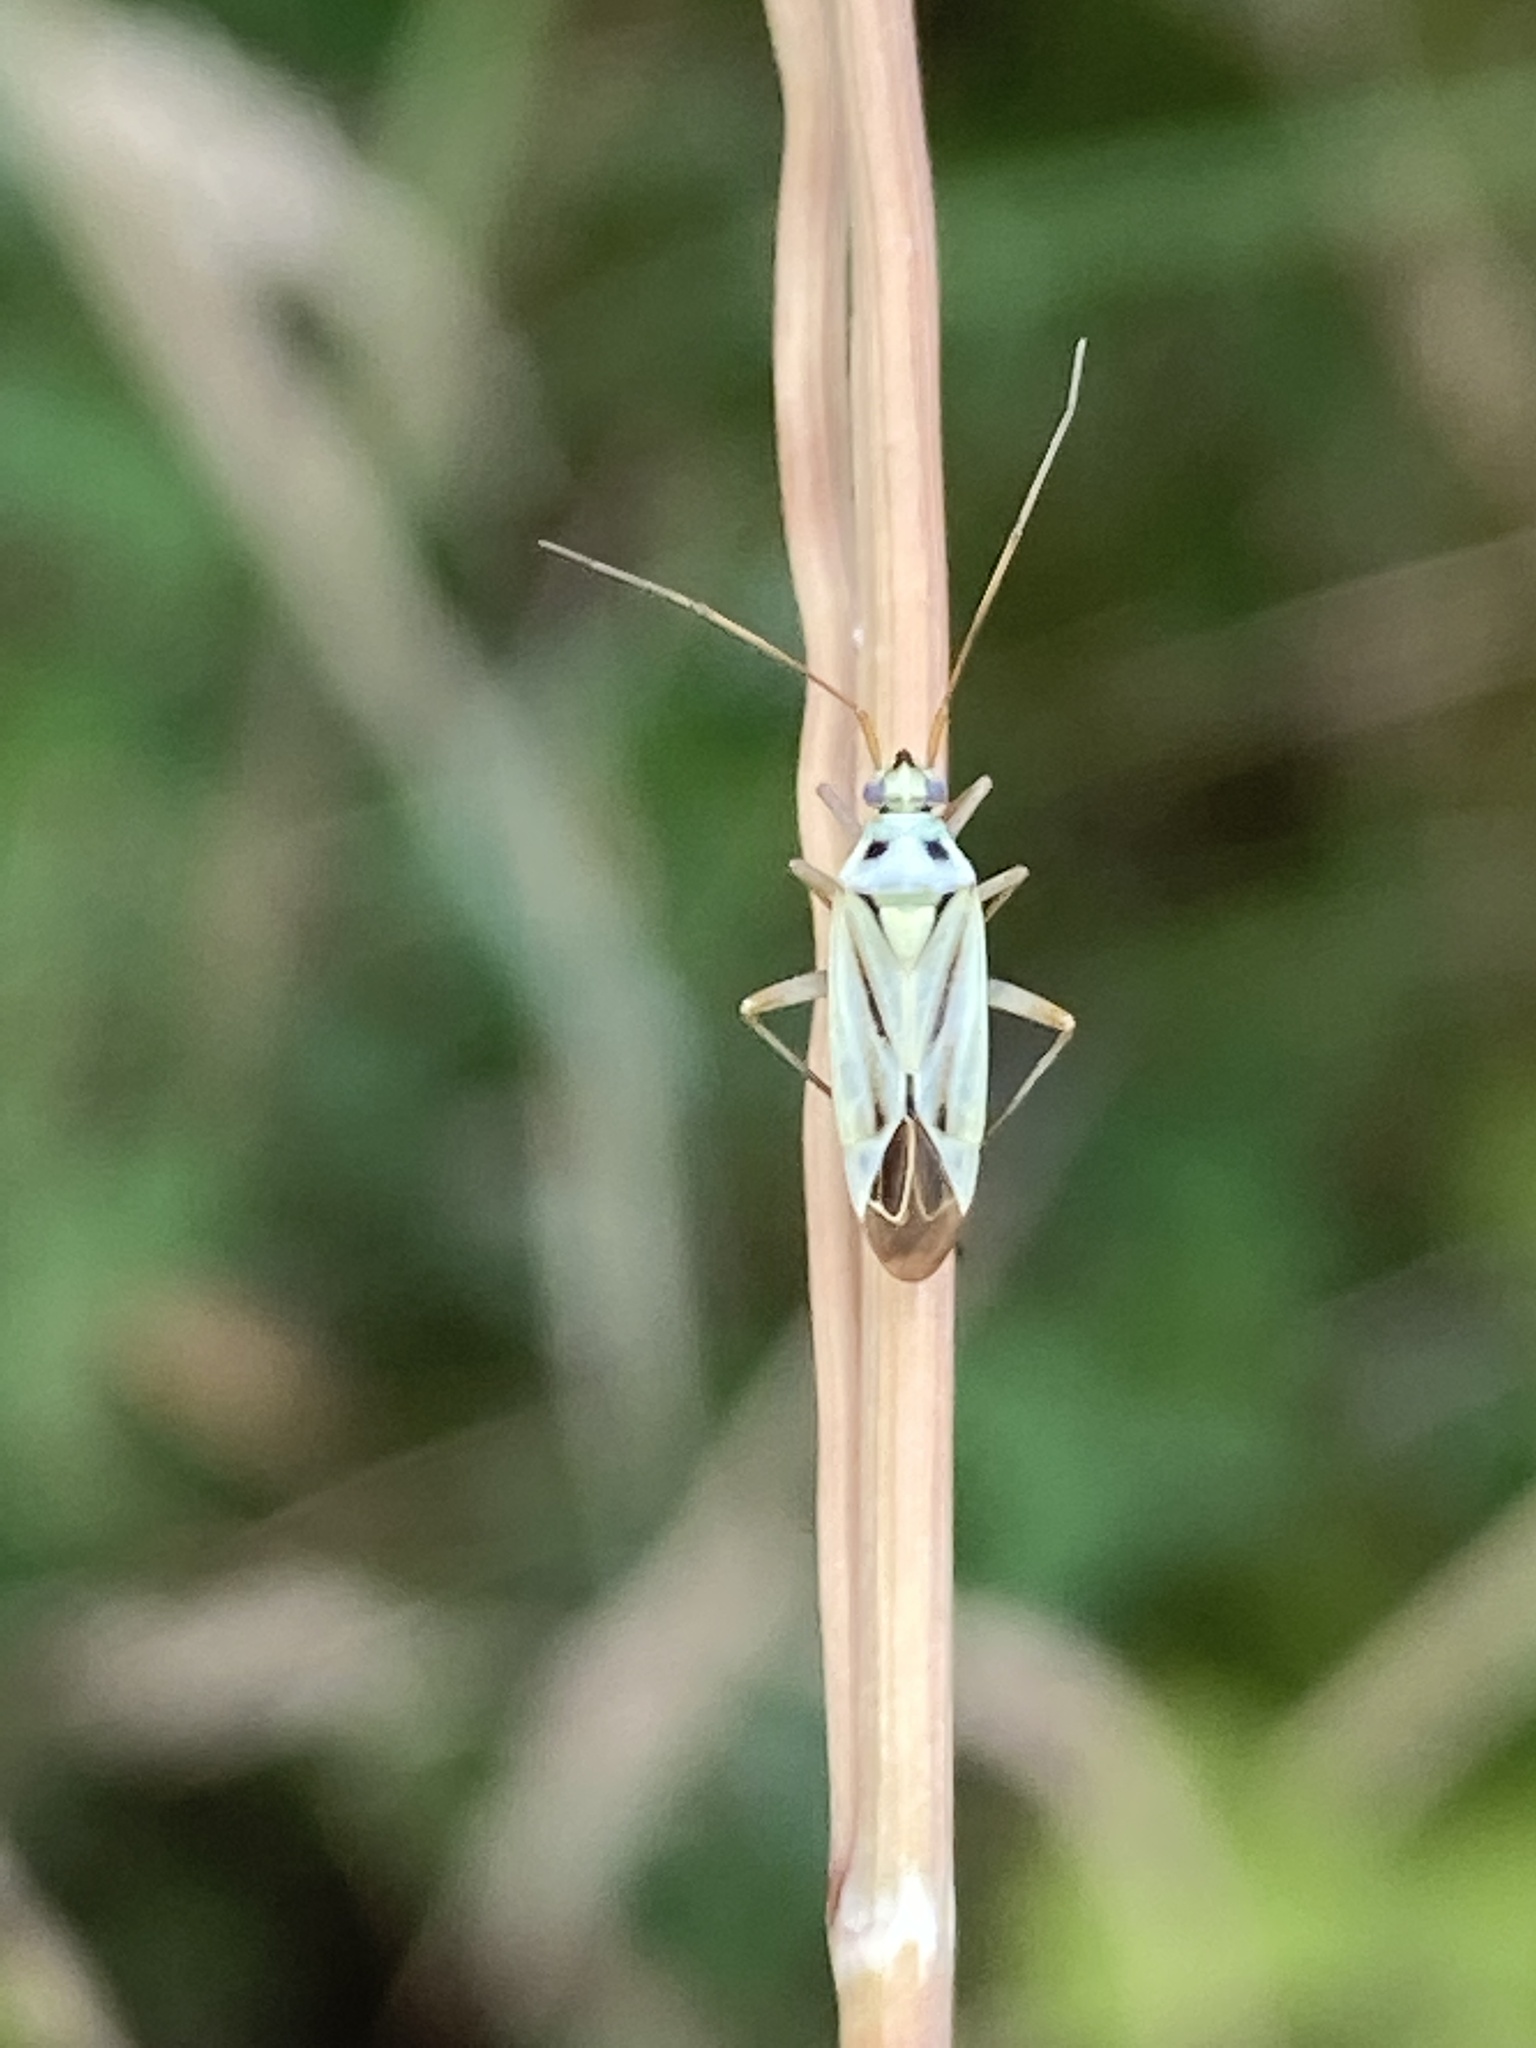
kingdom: Animalia
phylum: Arthropoda
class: Insecta
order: Hemiptera
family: Miridae
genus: Stenotus
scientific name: Stenotus binotatus
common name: Plant bug
